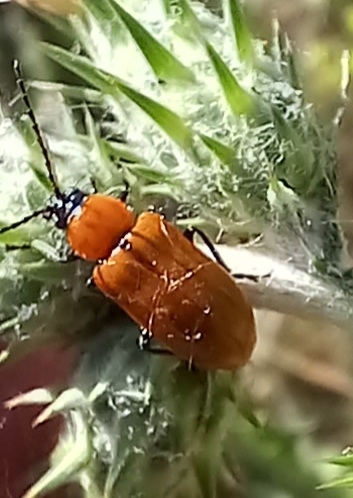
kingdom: Animalia
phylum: Arthropoda
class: Insecta
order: Coleoptera
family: Chrysomelidae
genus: Exosoma
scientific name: Exosoma lusitanicum
